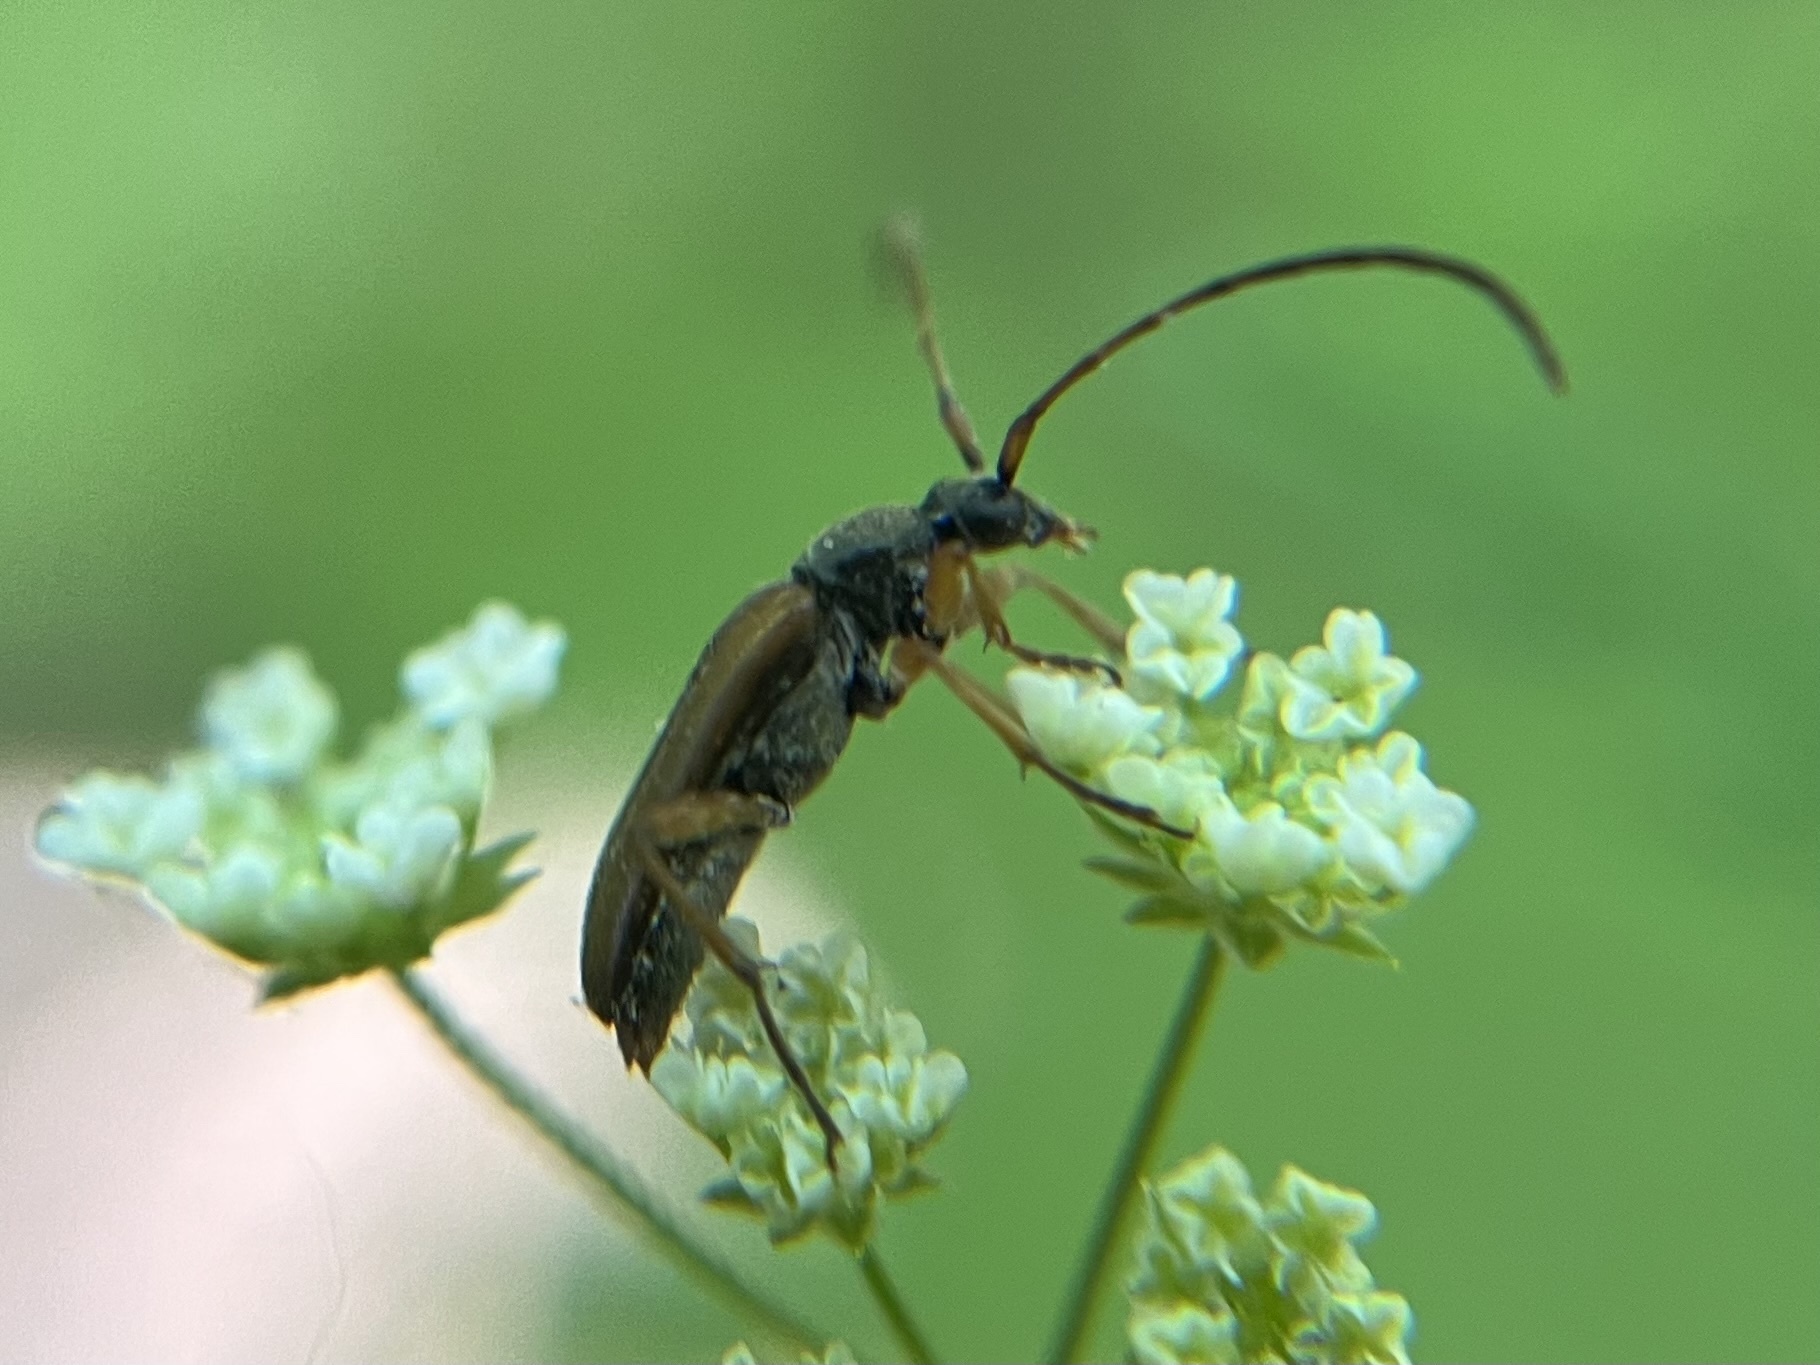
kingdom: Animalia
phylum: Arthropoda
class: Insecta
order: Coleoptera
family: Cerambycidae
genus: Alosterna
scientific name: Alosterna tabacicolor
